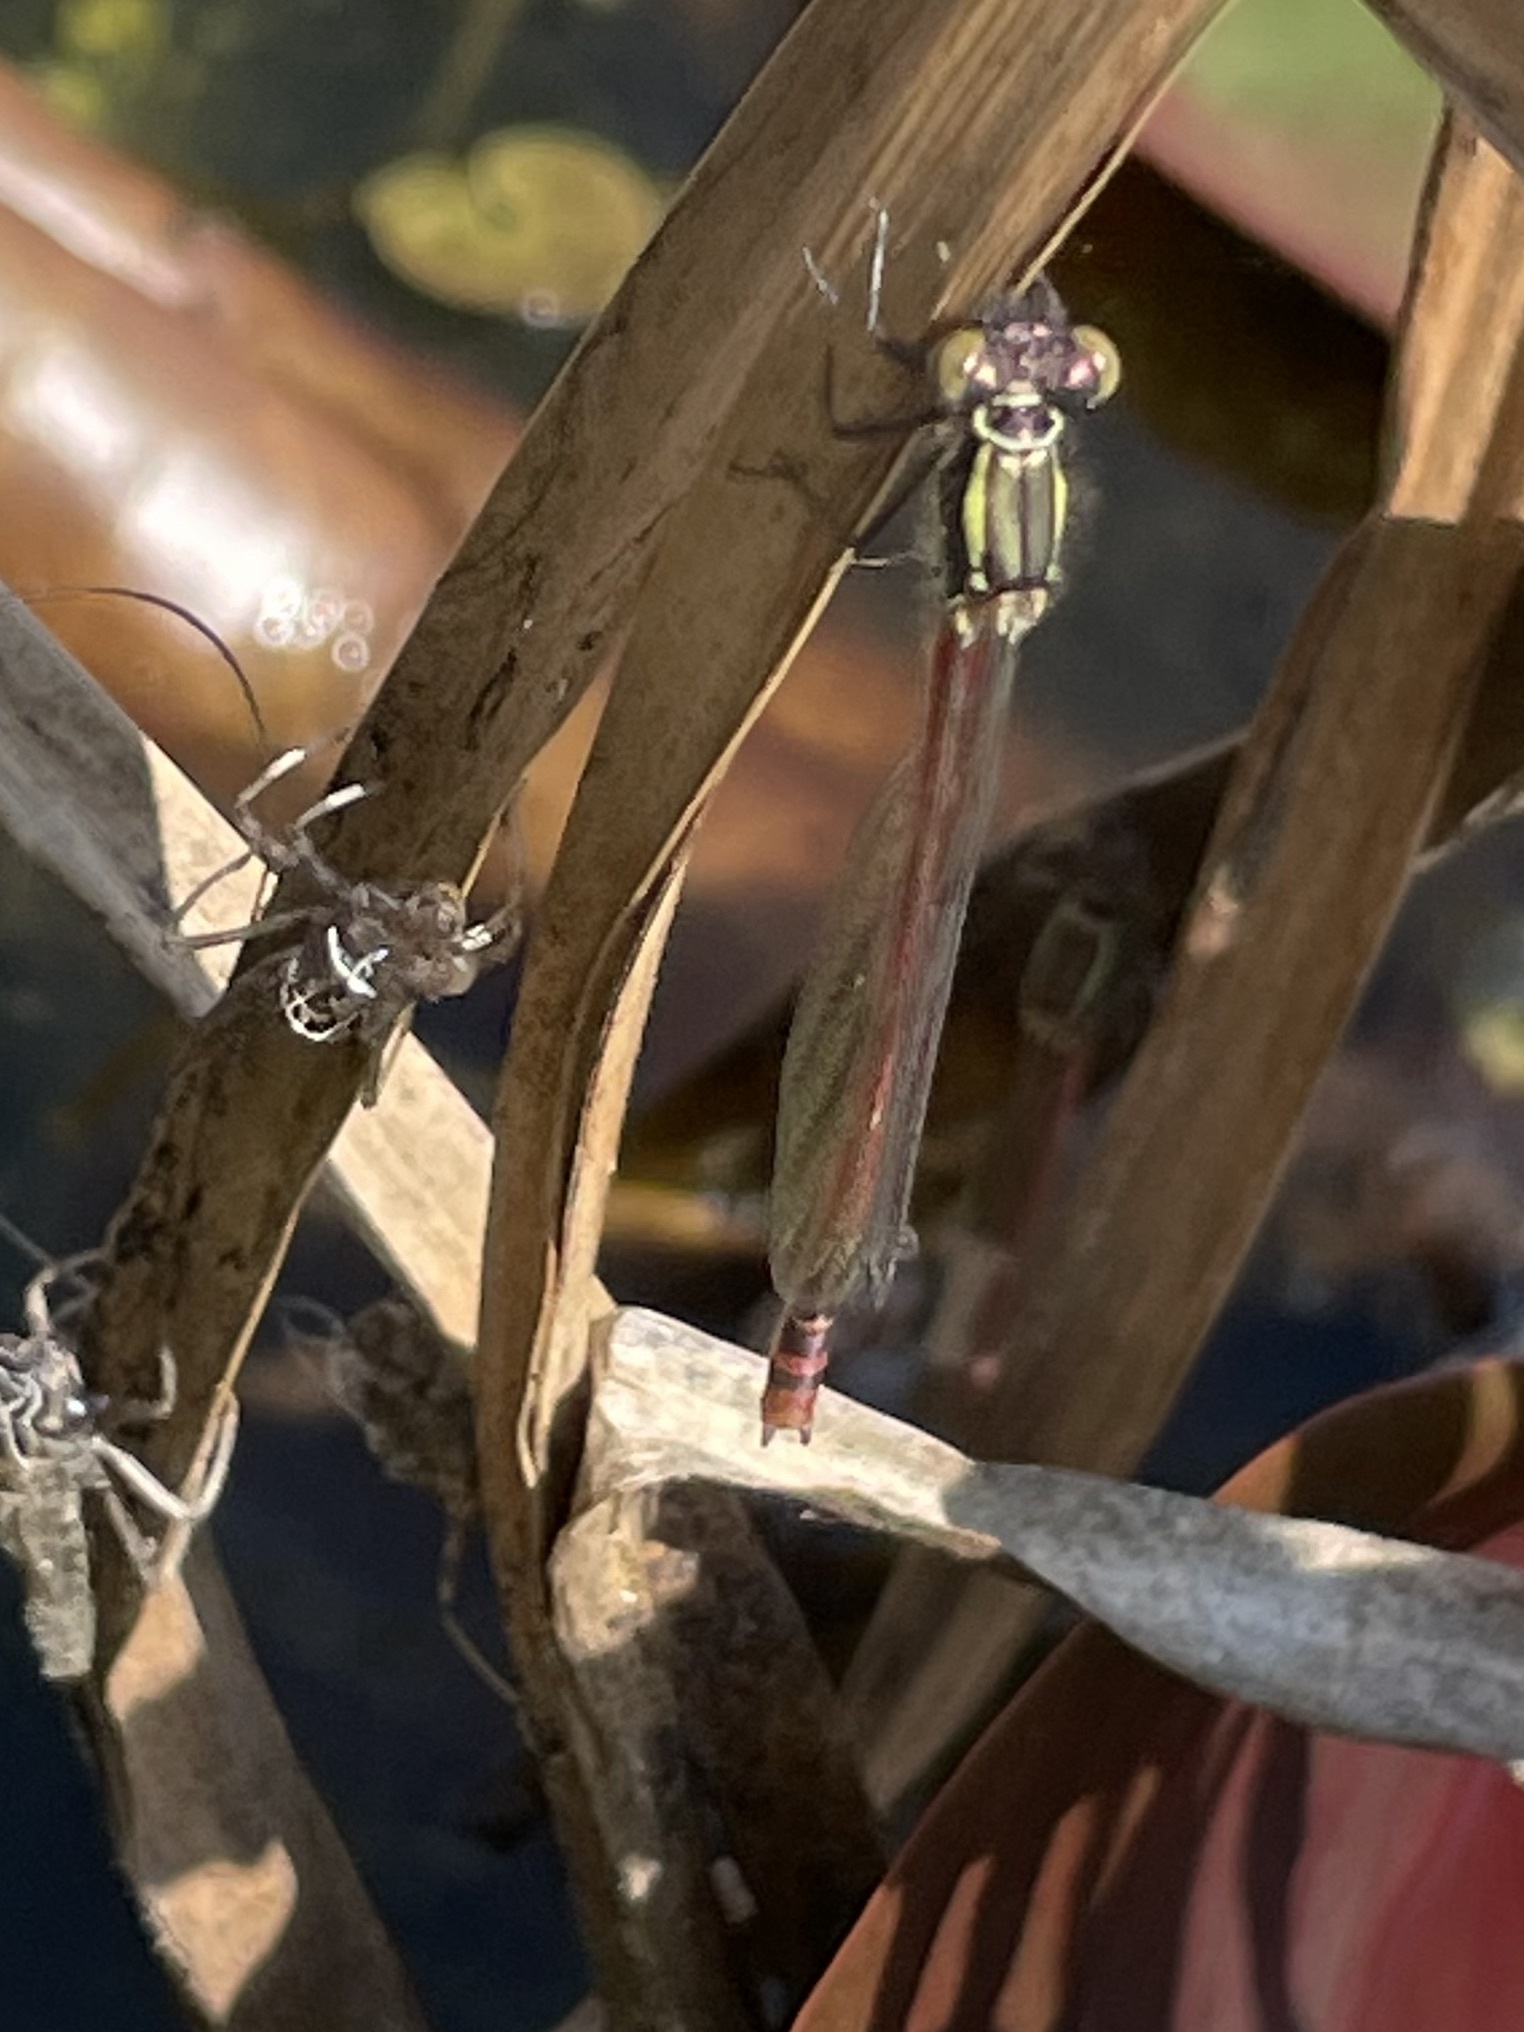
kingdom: Animalia
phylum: Arthropoda
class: Insecta
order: Odonata
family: Coenagrionidae
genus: Pyrrhosoma
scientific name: Pyrrhosoma nymphula
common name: Large red damsel
